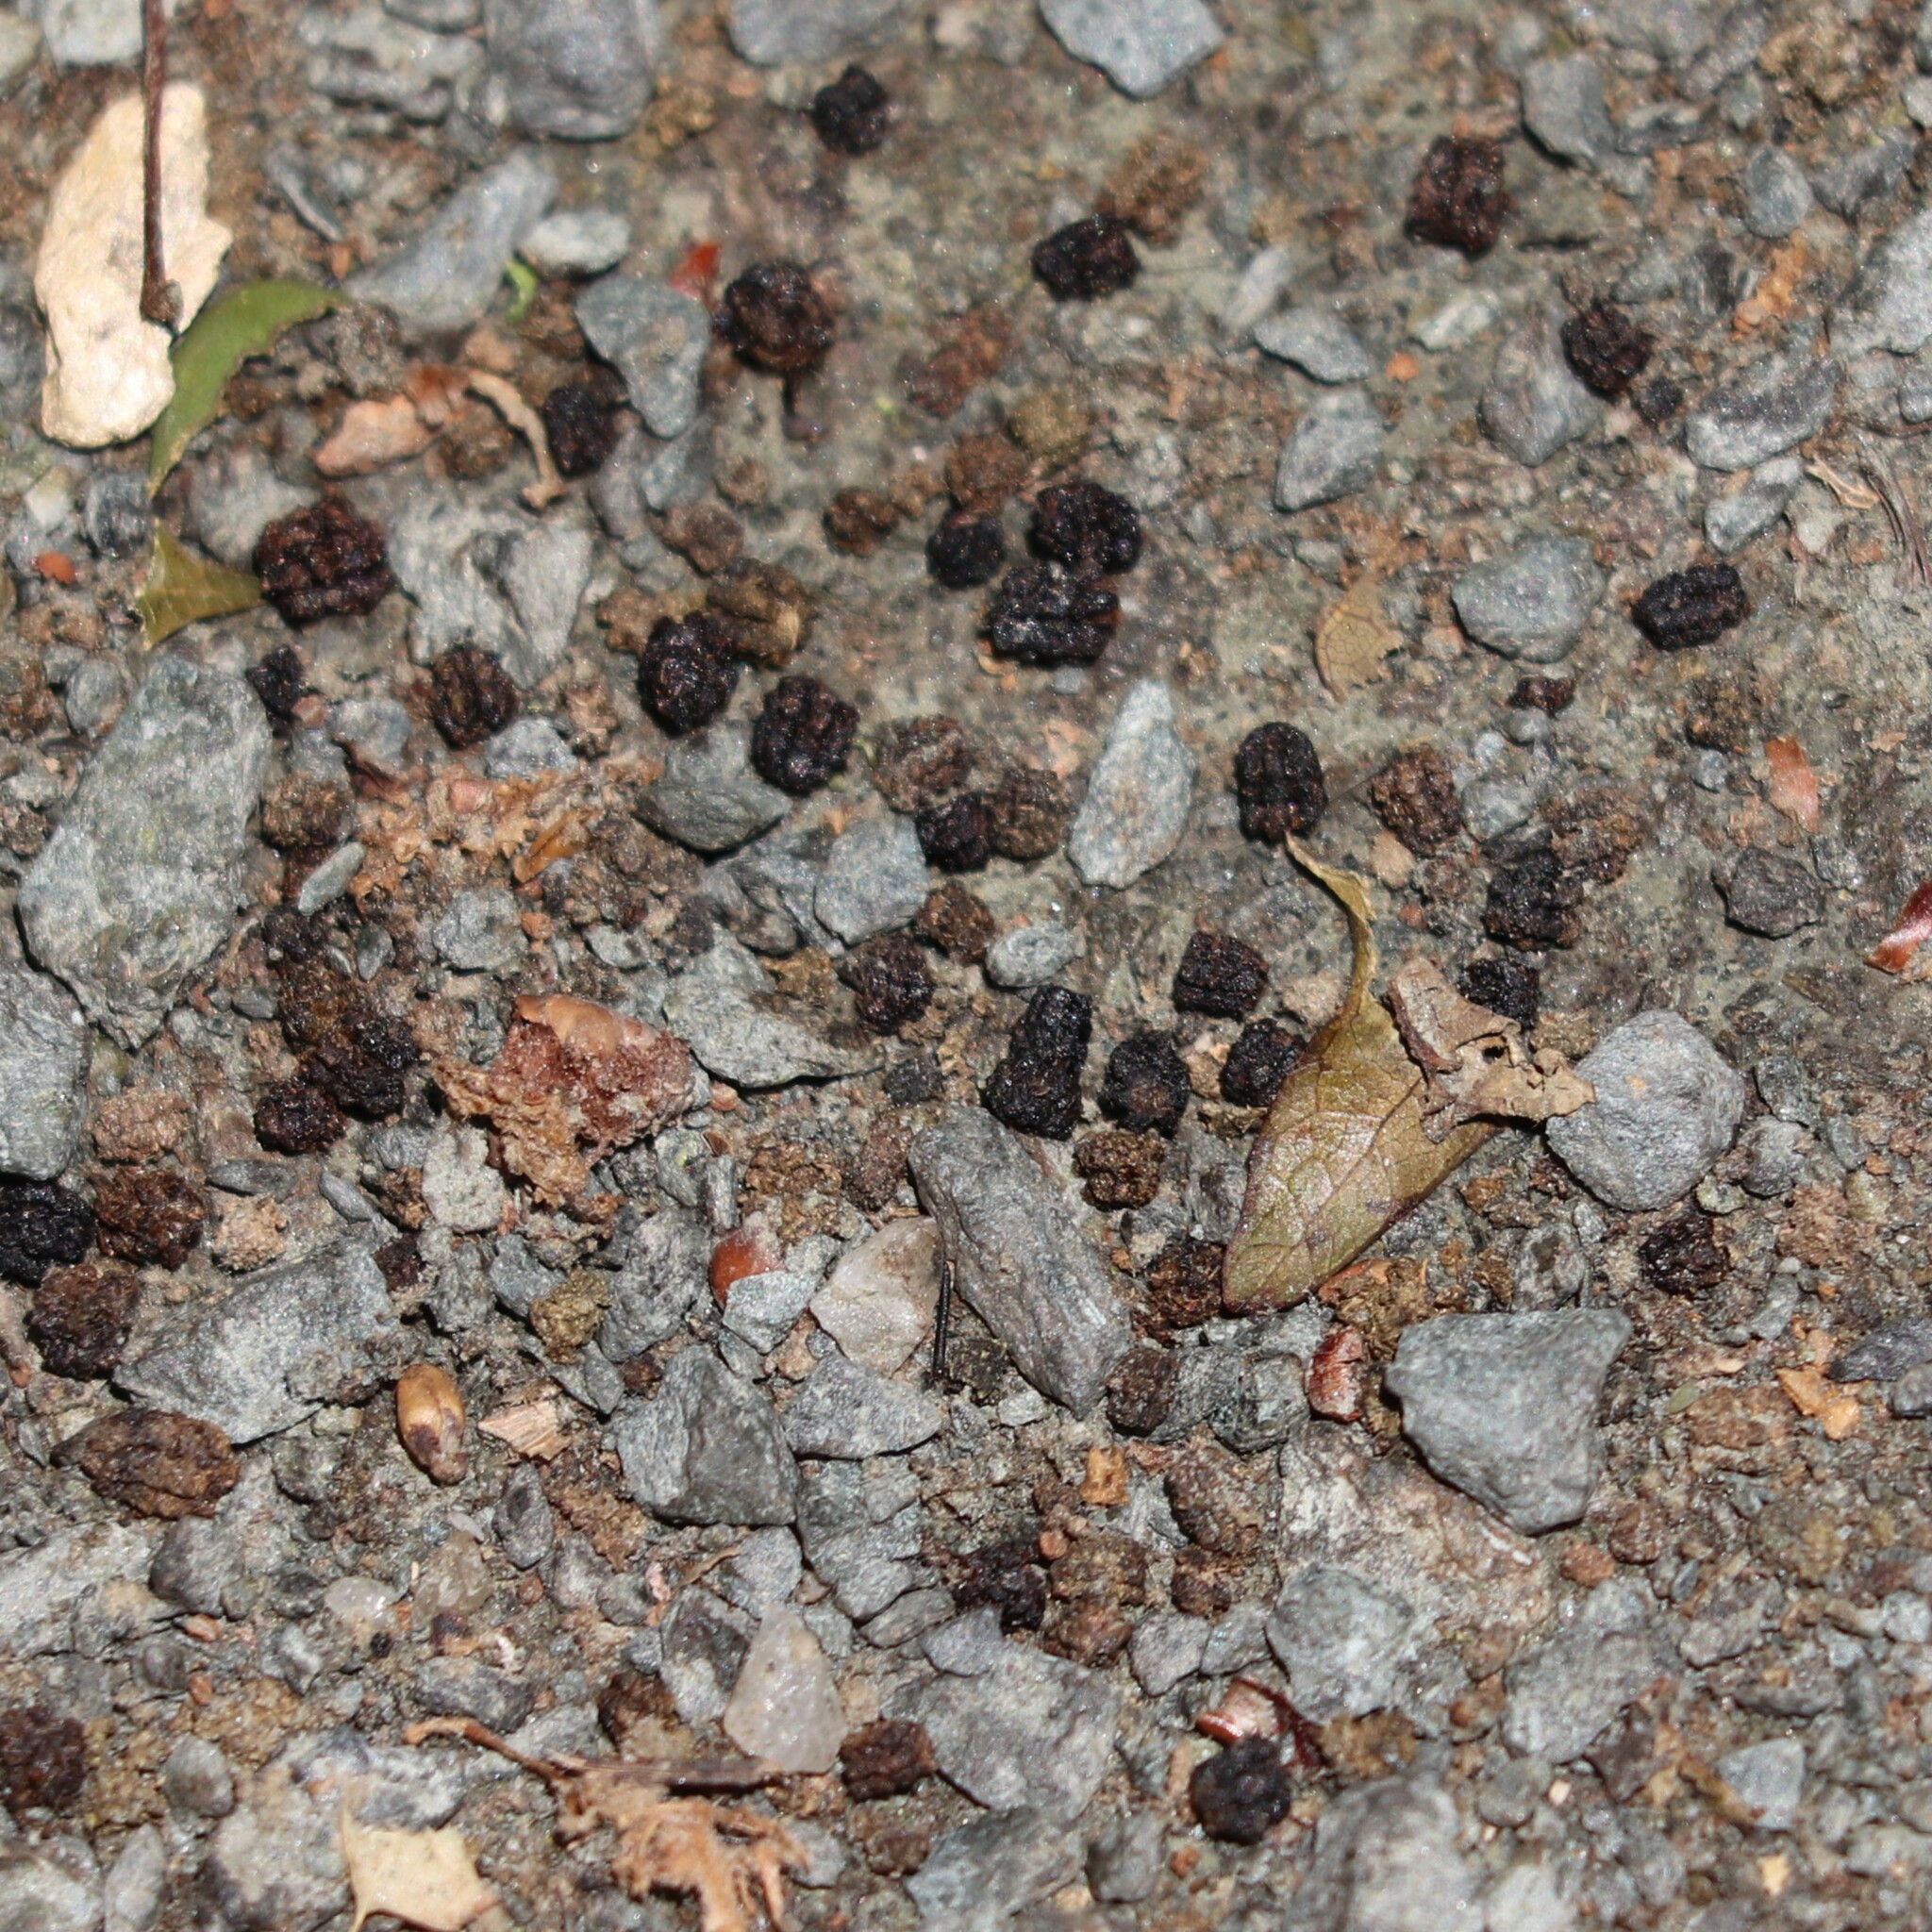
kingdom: Animalia
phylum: Arthropoda
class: Insecta
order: Lepidoptera
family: Erebidae
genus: Lymantria
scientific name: Lymantria dispar
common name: Gypsy moth
